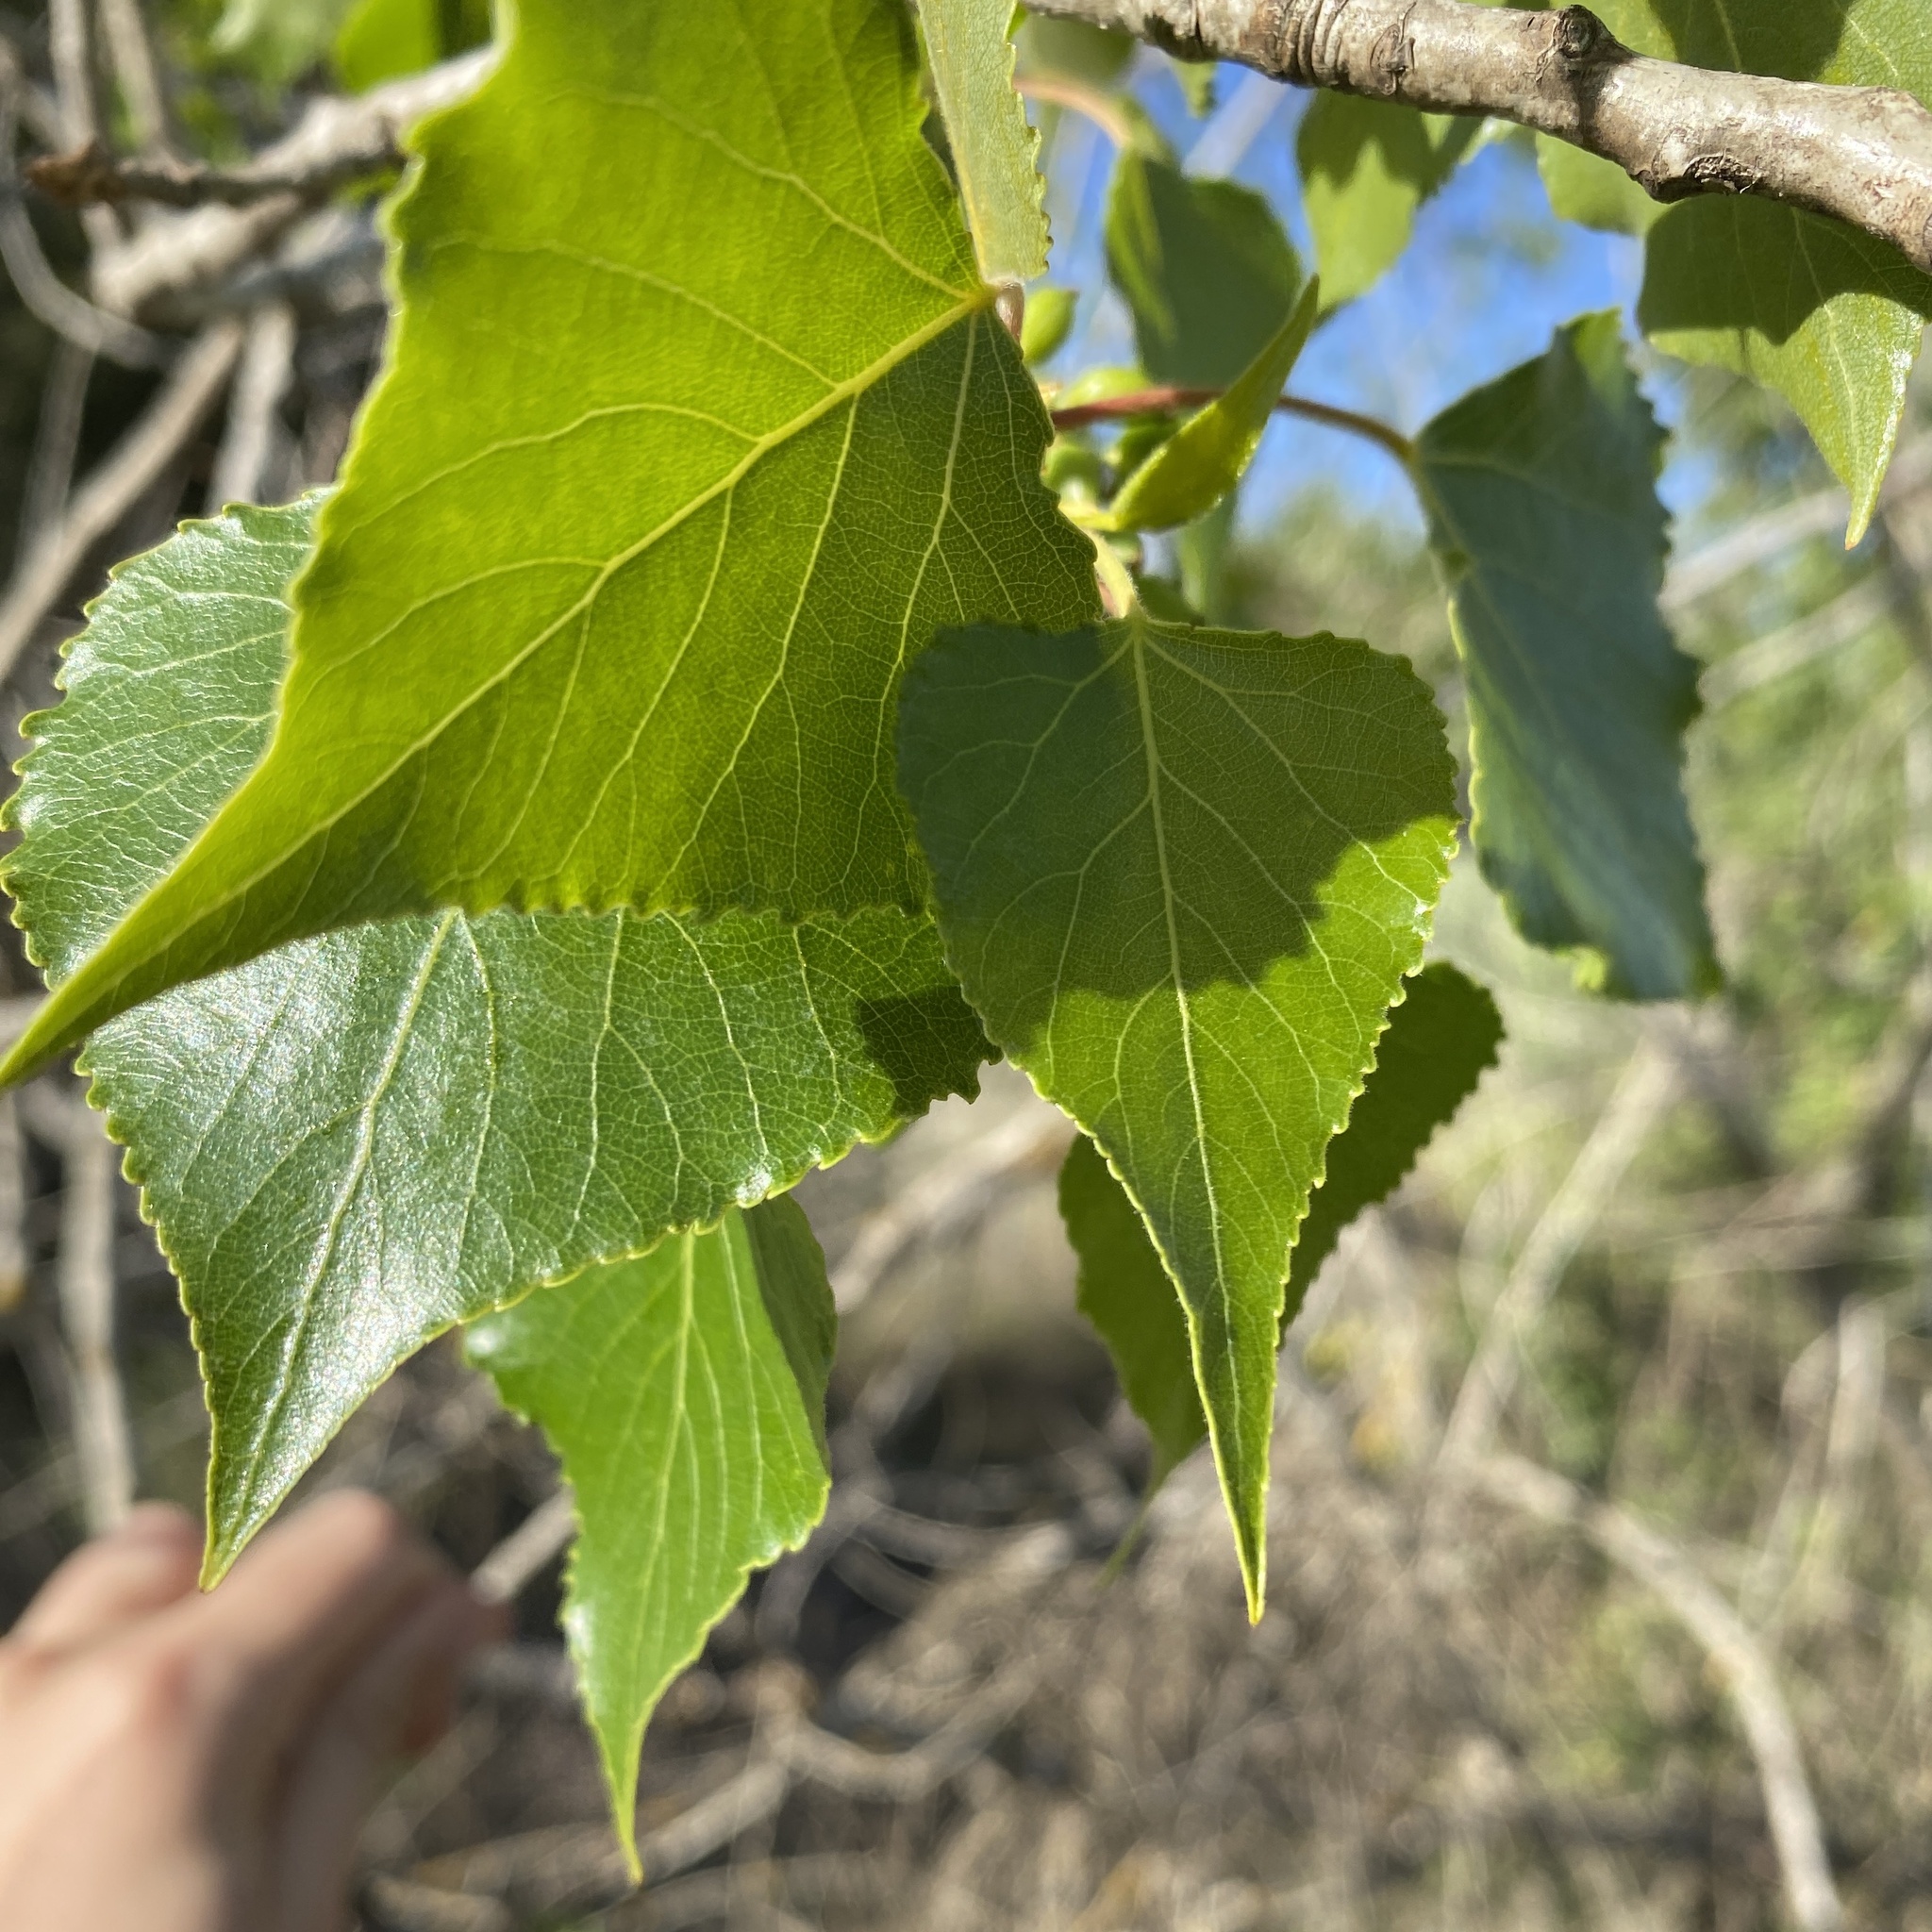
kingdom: Plantae
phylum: Tracheophyta
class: Magnoliopsida
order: Malpighiales
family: Salicaceae
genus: Populus
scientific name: Populus nigra
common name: Black poplar
